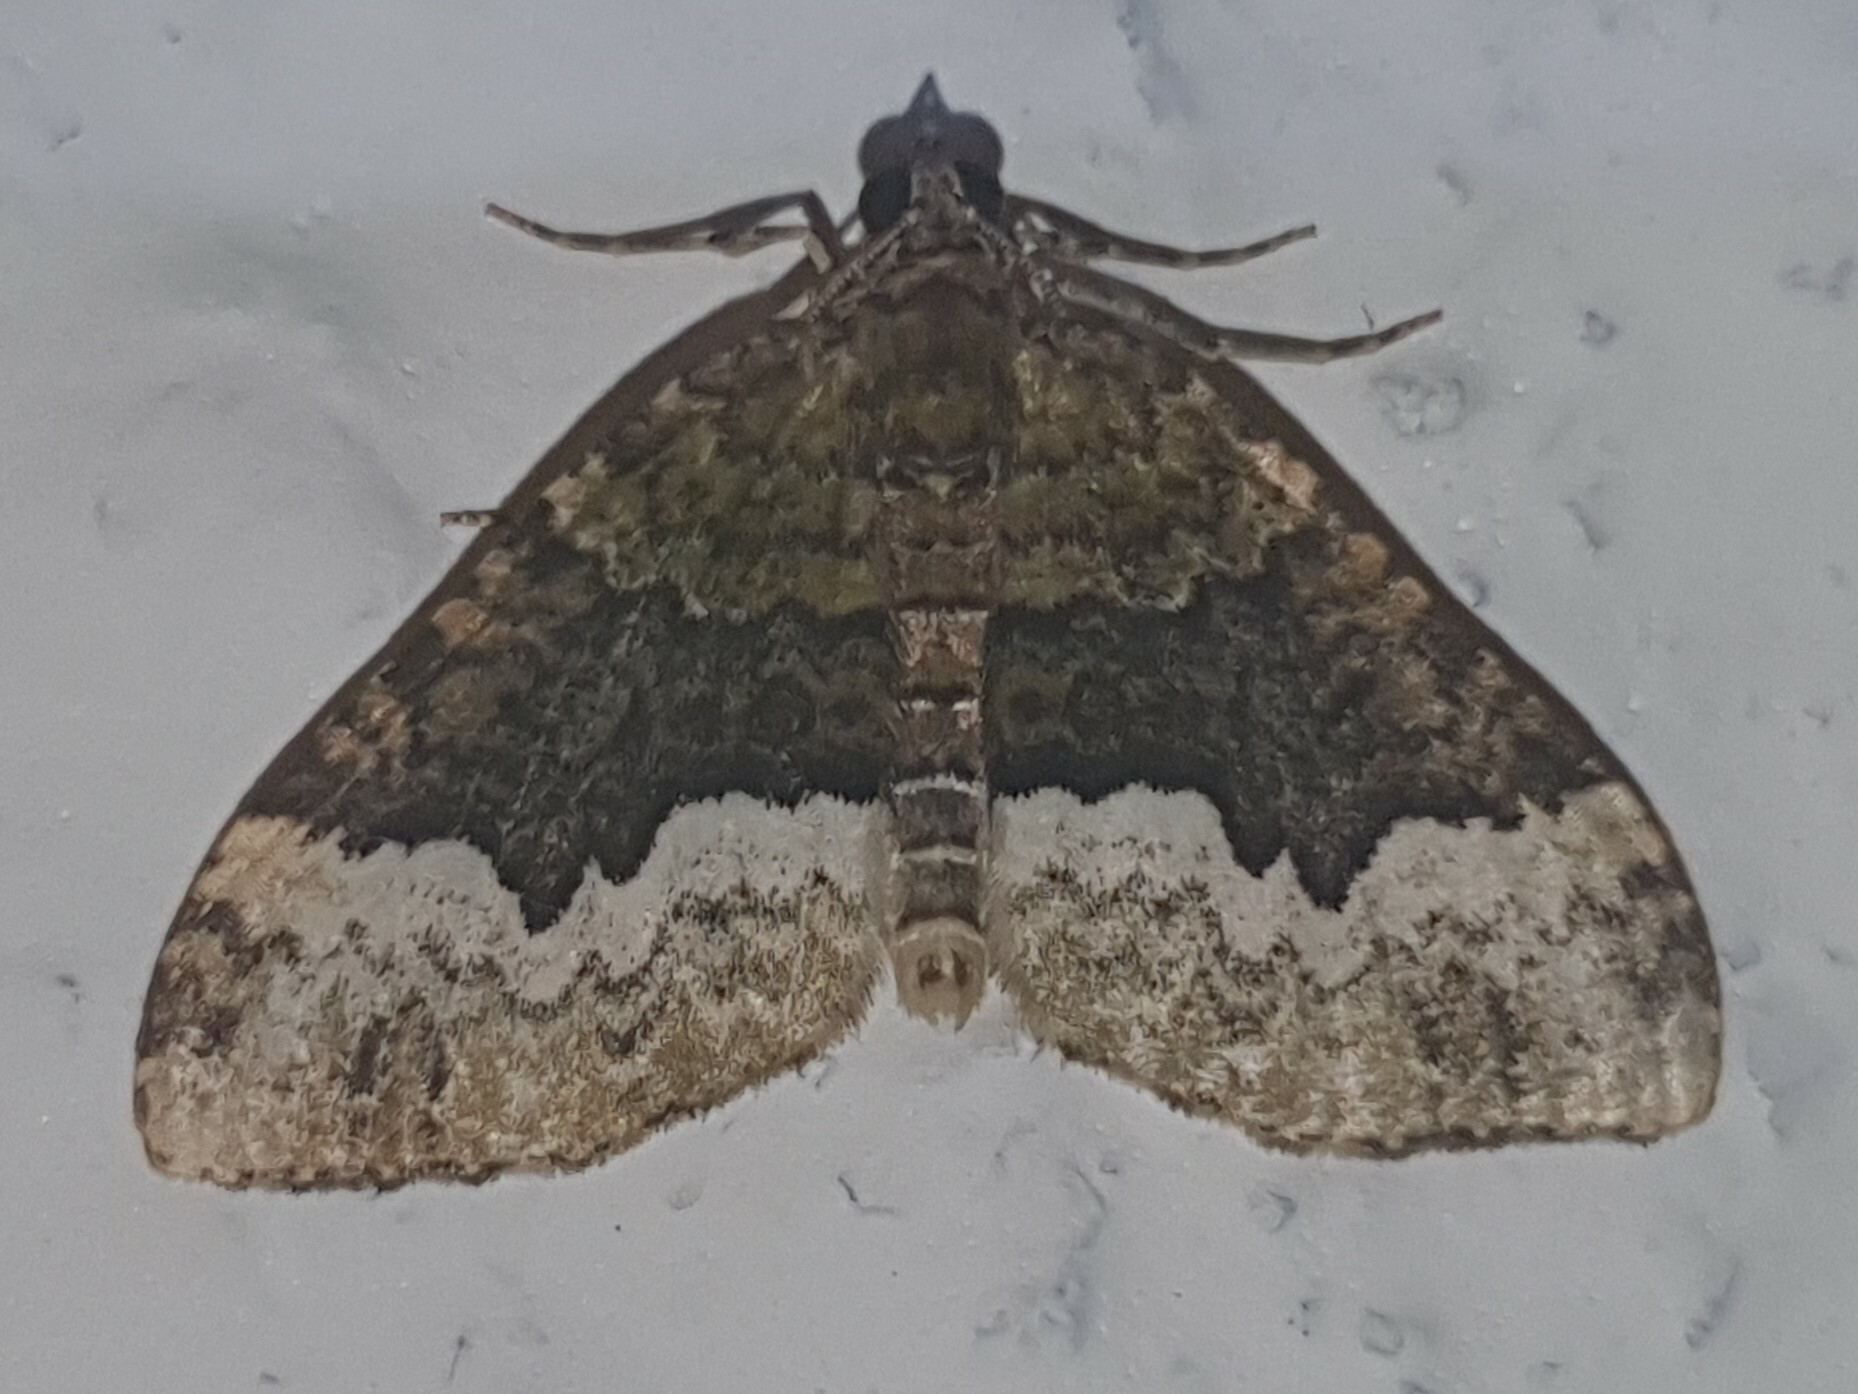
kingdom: Animalia
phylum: Arthropoda
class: Insecta
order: Lepidoptera
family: Geometridae
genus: Euphyia
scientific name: Euphyia biangulata
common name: Cloaked carpet
